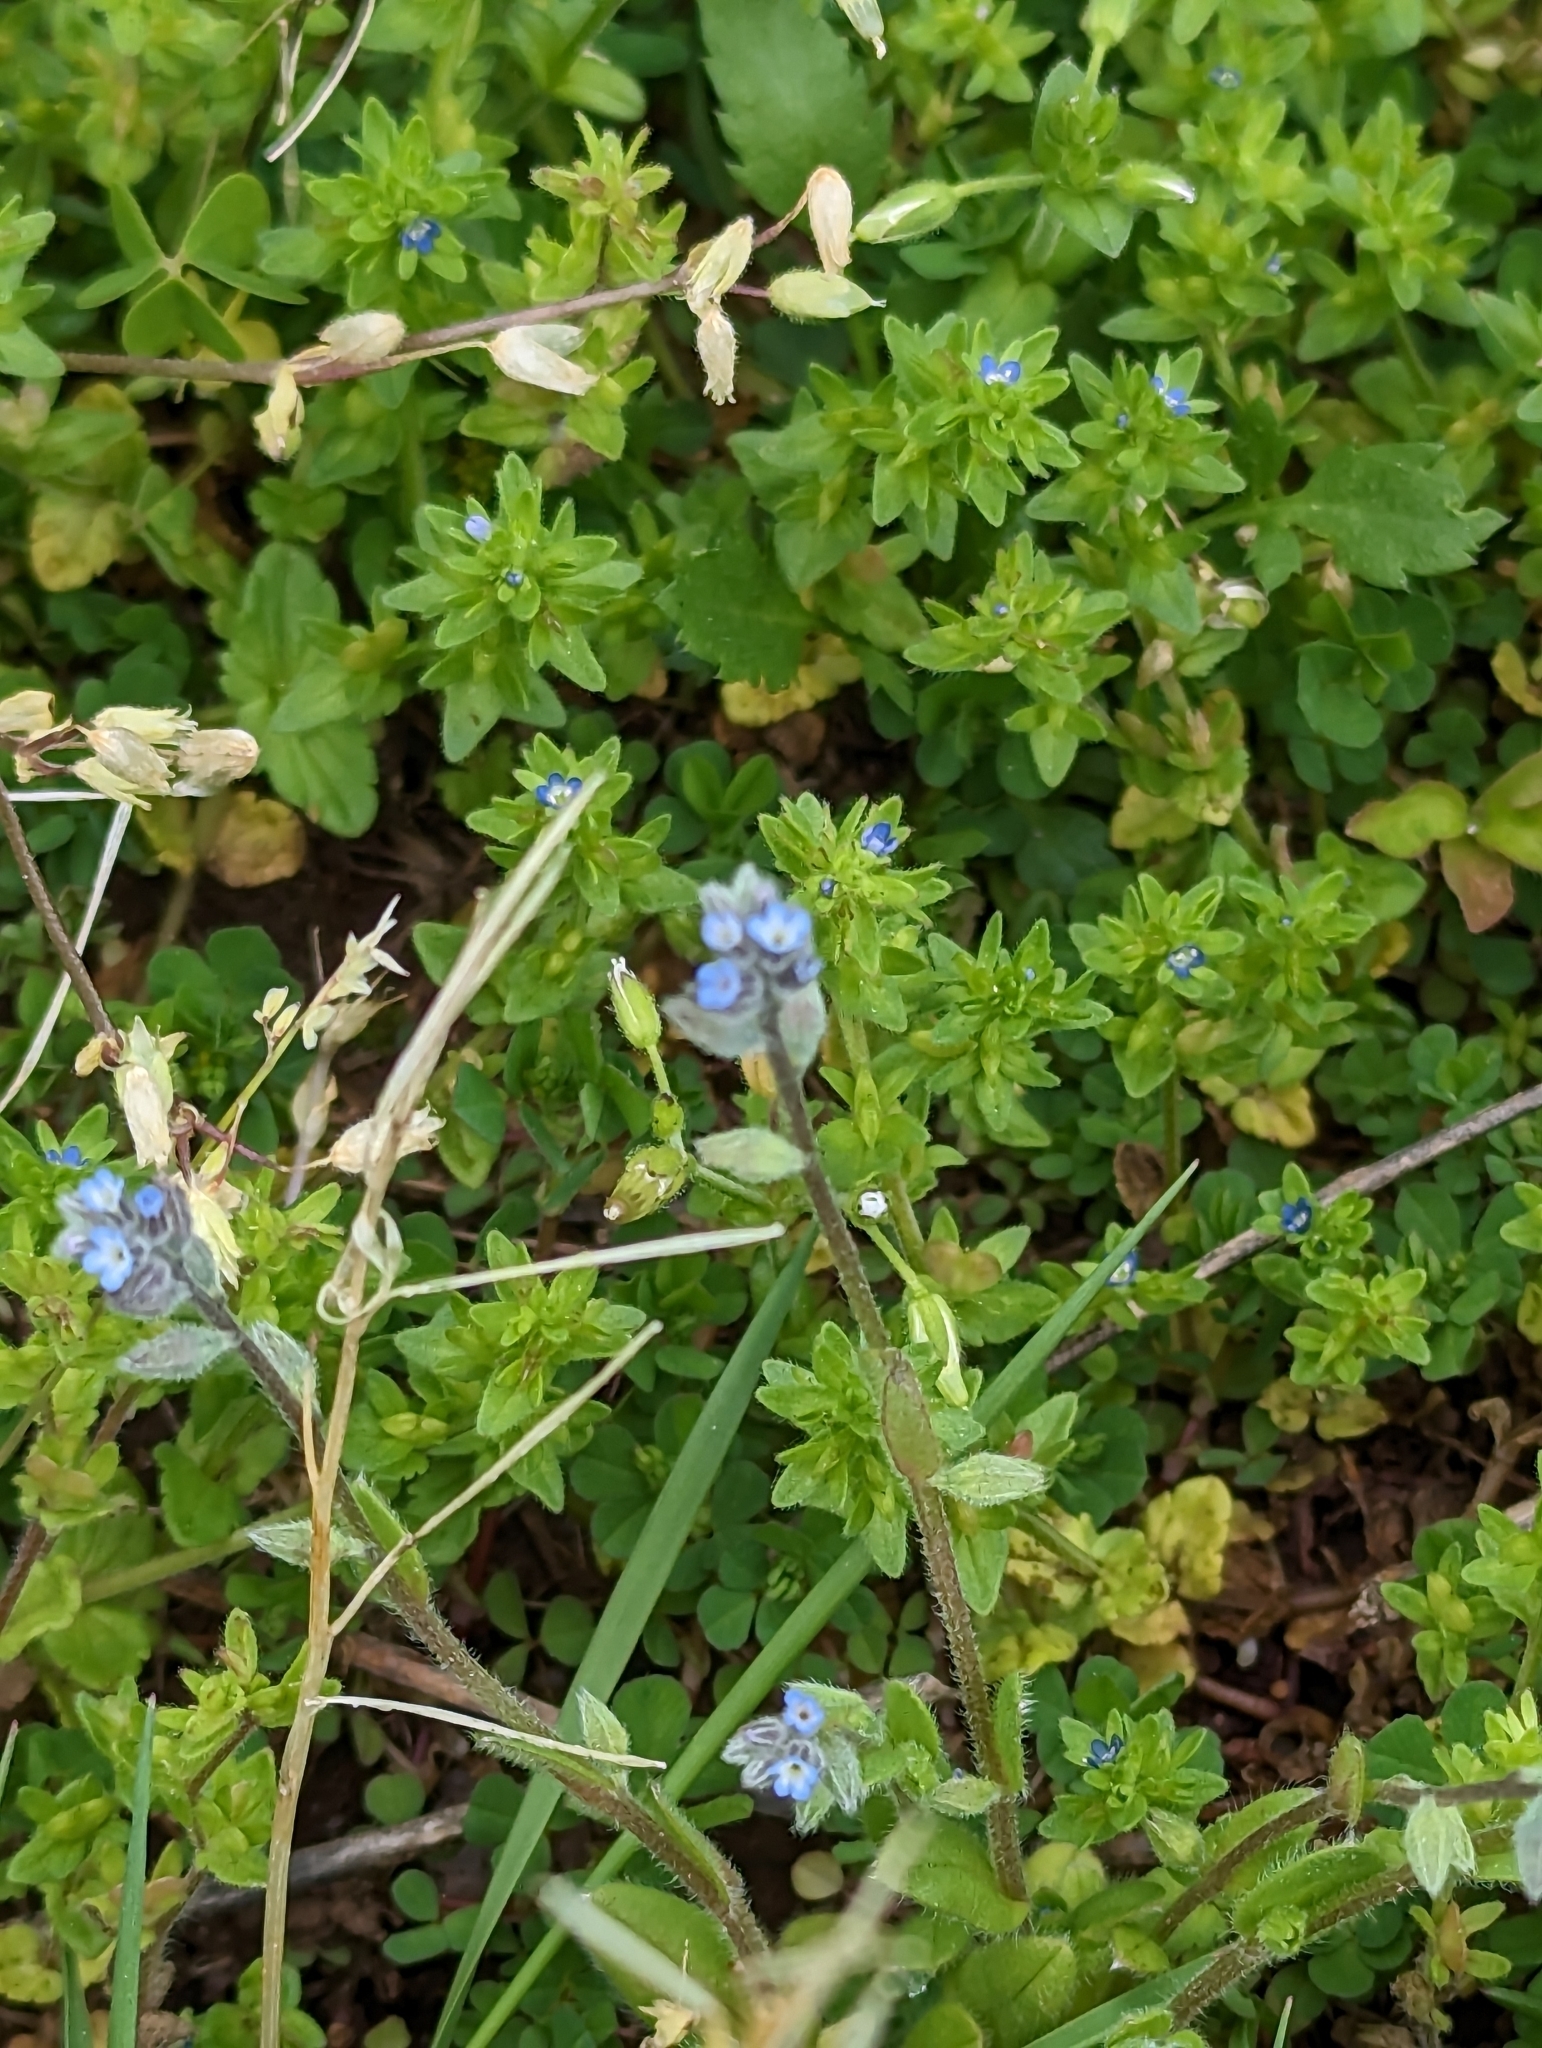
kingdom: Plantae
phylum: Tracheophyta
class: Magnoliopsida
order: Lamiales
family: Plantaginaceae
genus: Veronica
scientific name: Veronica arvensis
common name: Corn speedwell
